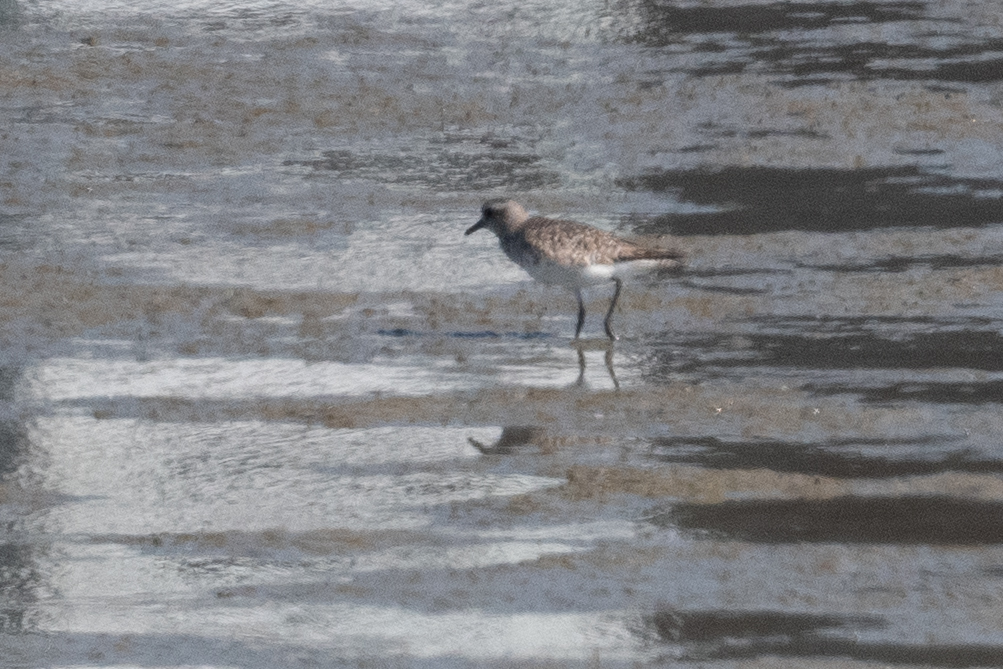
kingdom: Animalia
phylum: Chordata
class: Aves
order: Charadriiformes
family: Charadriidae
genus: Pluvialis
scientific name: Pluvialis squatarola
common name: Grey plover
